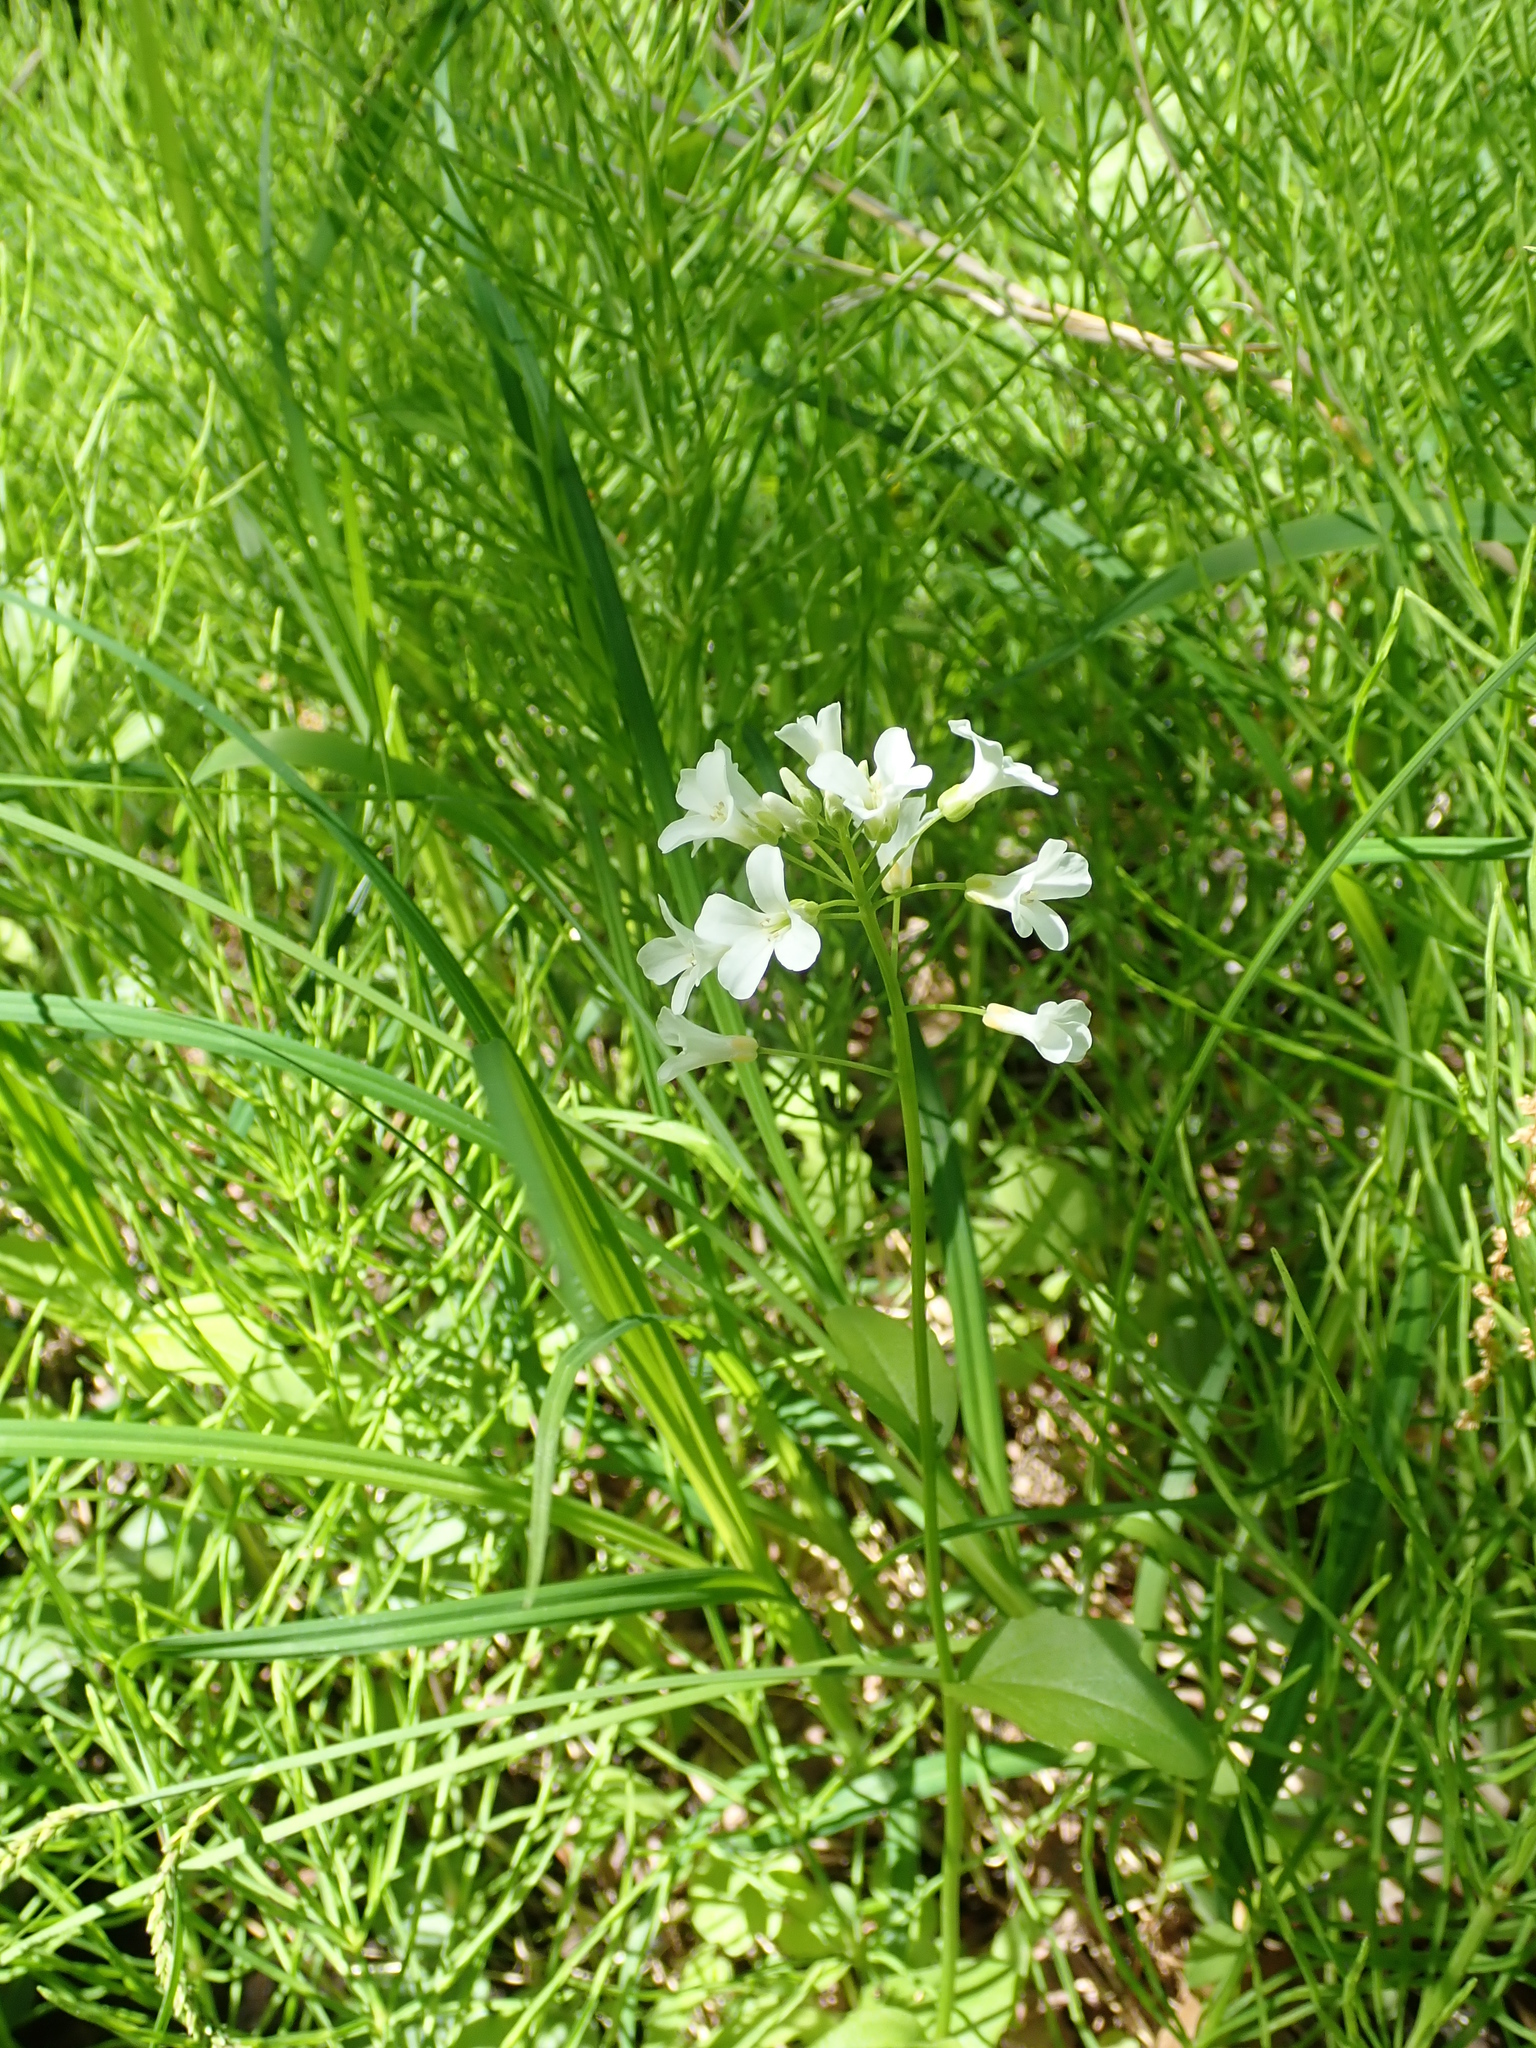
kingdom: Plantae
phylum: Tracheophyta
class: Magnoliopsida
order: Brassicales
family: Brassicaceae
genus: Cardamine
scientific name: Cardamine bulbosa
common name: Spring cress
